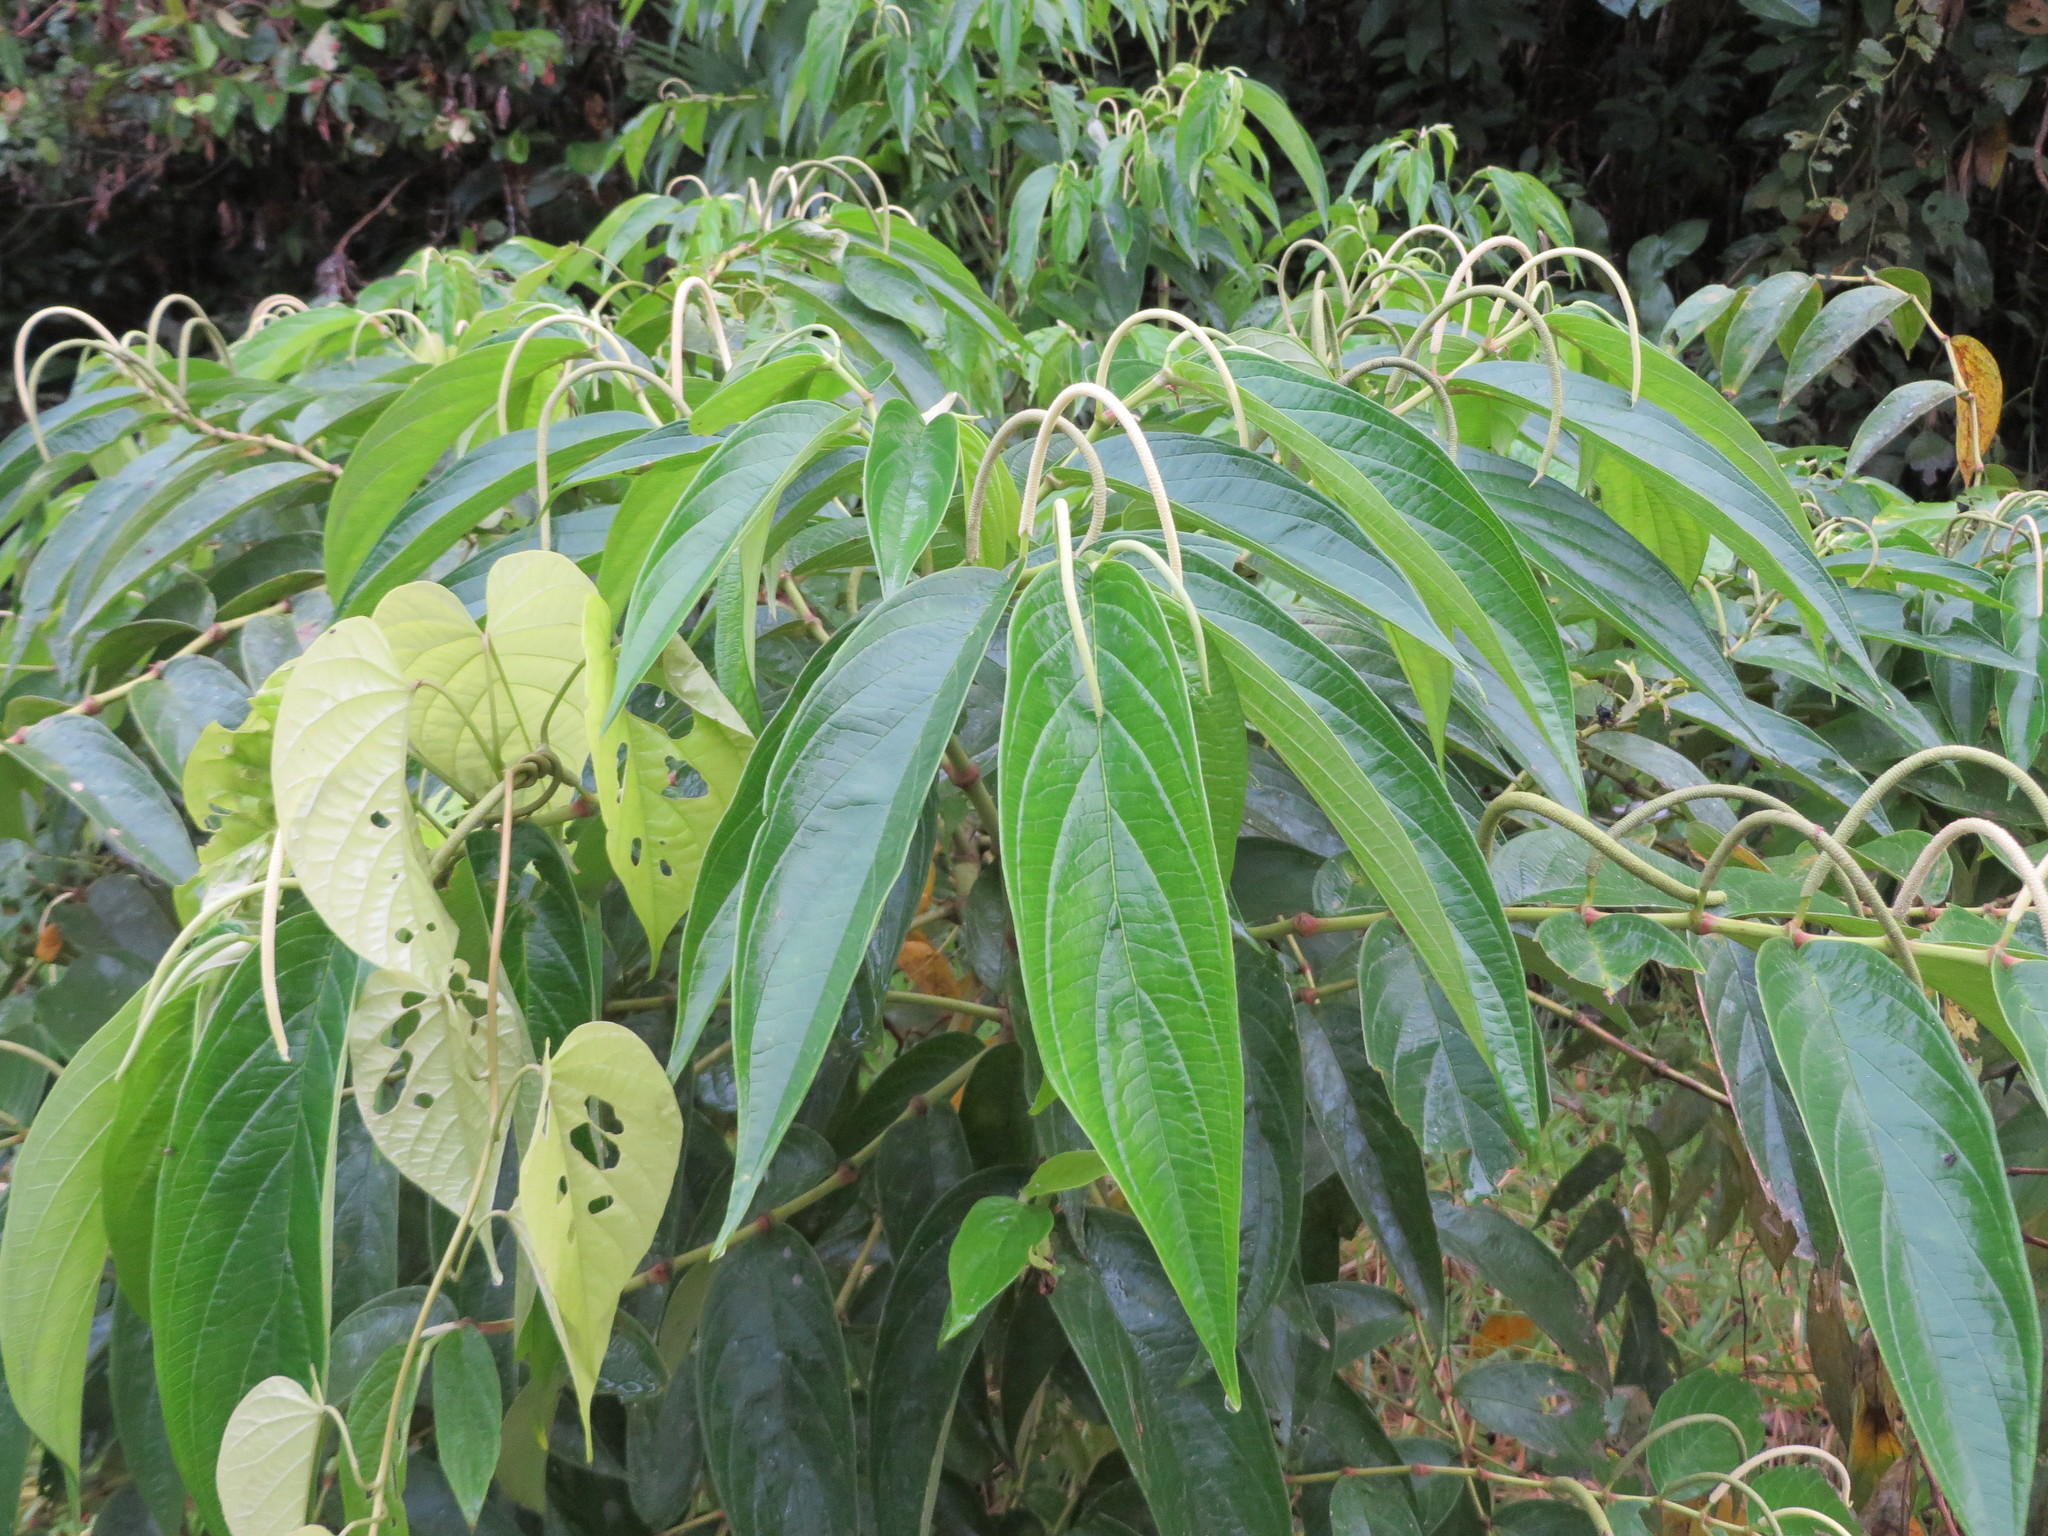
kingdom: Plantae
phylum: Tracheophyta
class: Magnoliopsida
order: Piperales
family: Piperaceae
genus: Piper
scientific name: Piper aduncum
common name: Spiked pepper
